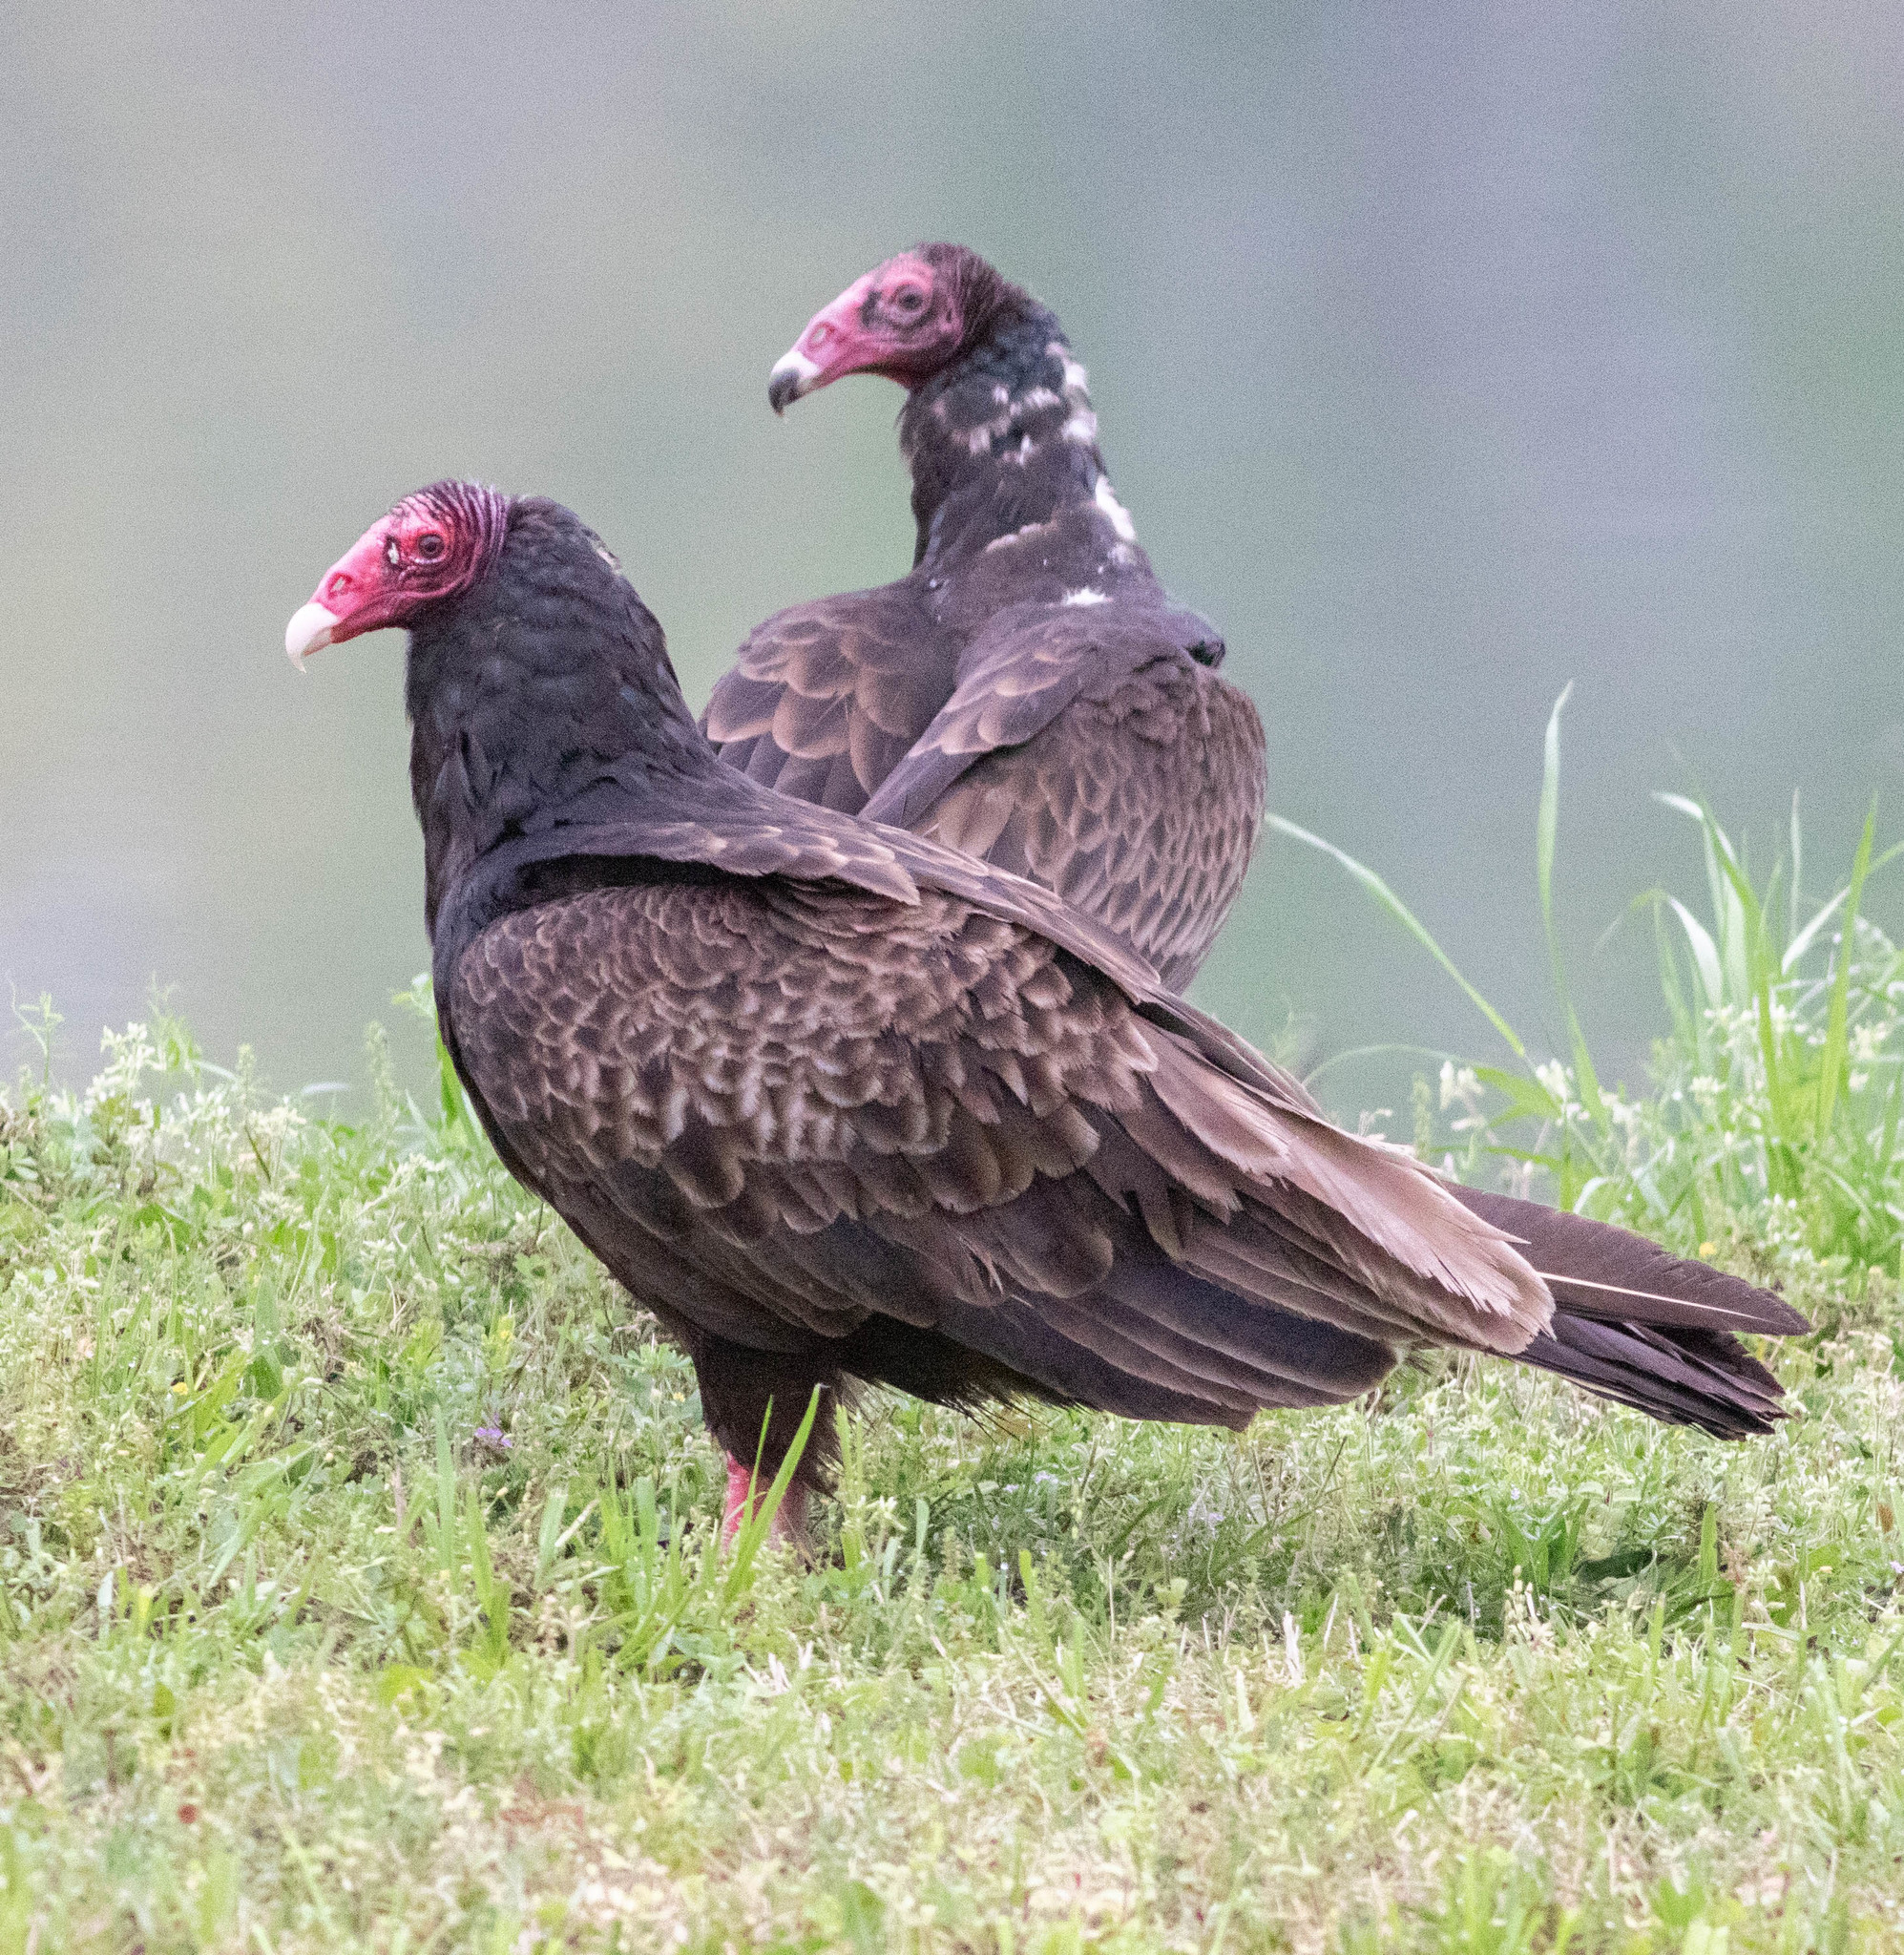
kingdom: Animalia
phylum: Chordata
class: Aves
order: Accipitriformes
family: Cathartidae
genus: Cathartes
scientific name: Cathartes aura
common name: Turkey vulture
